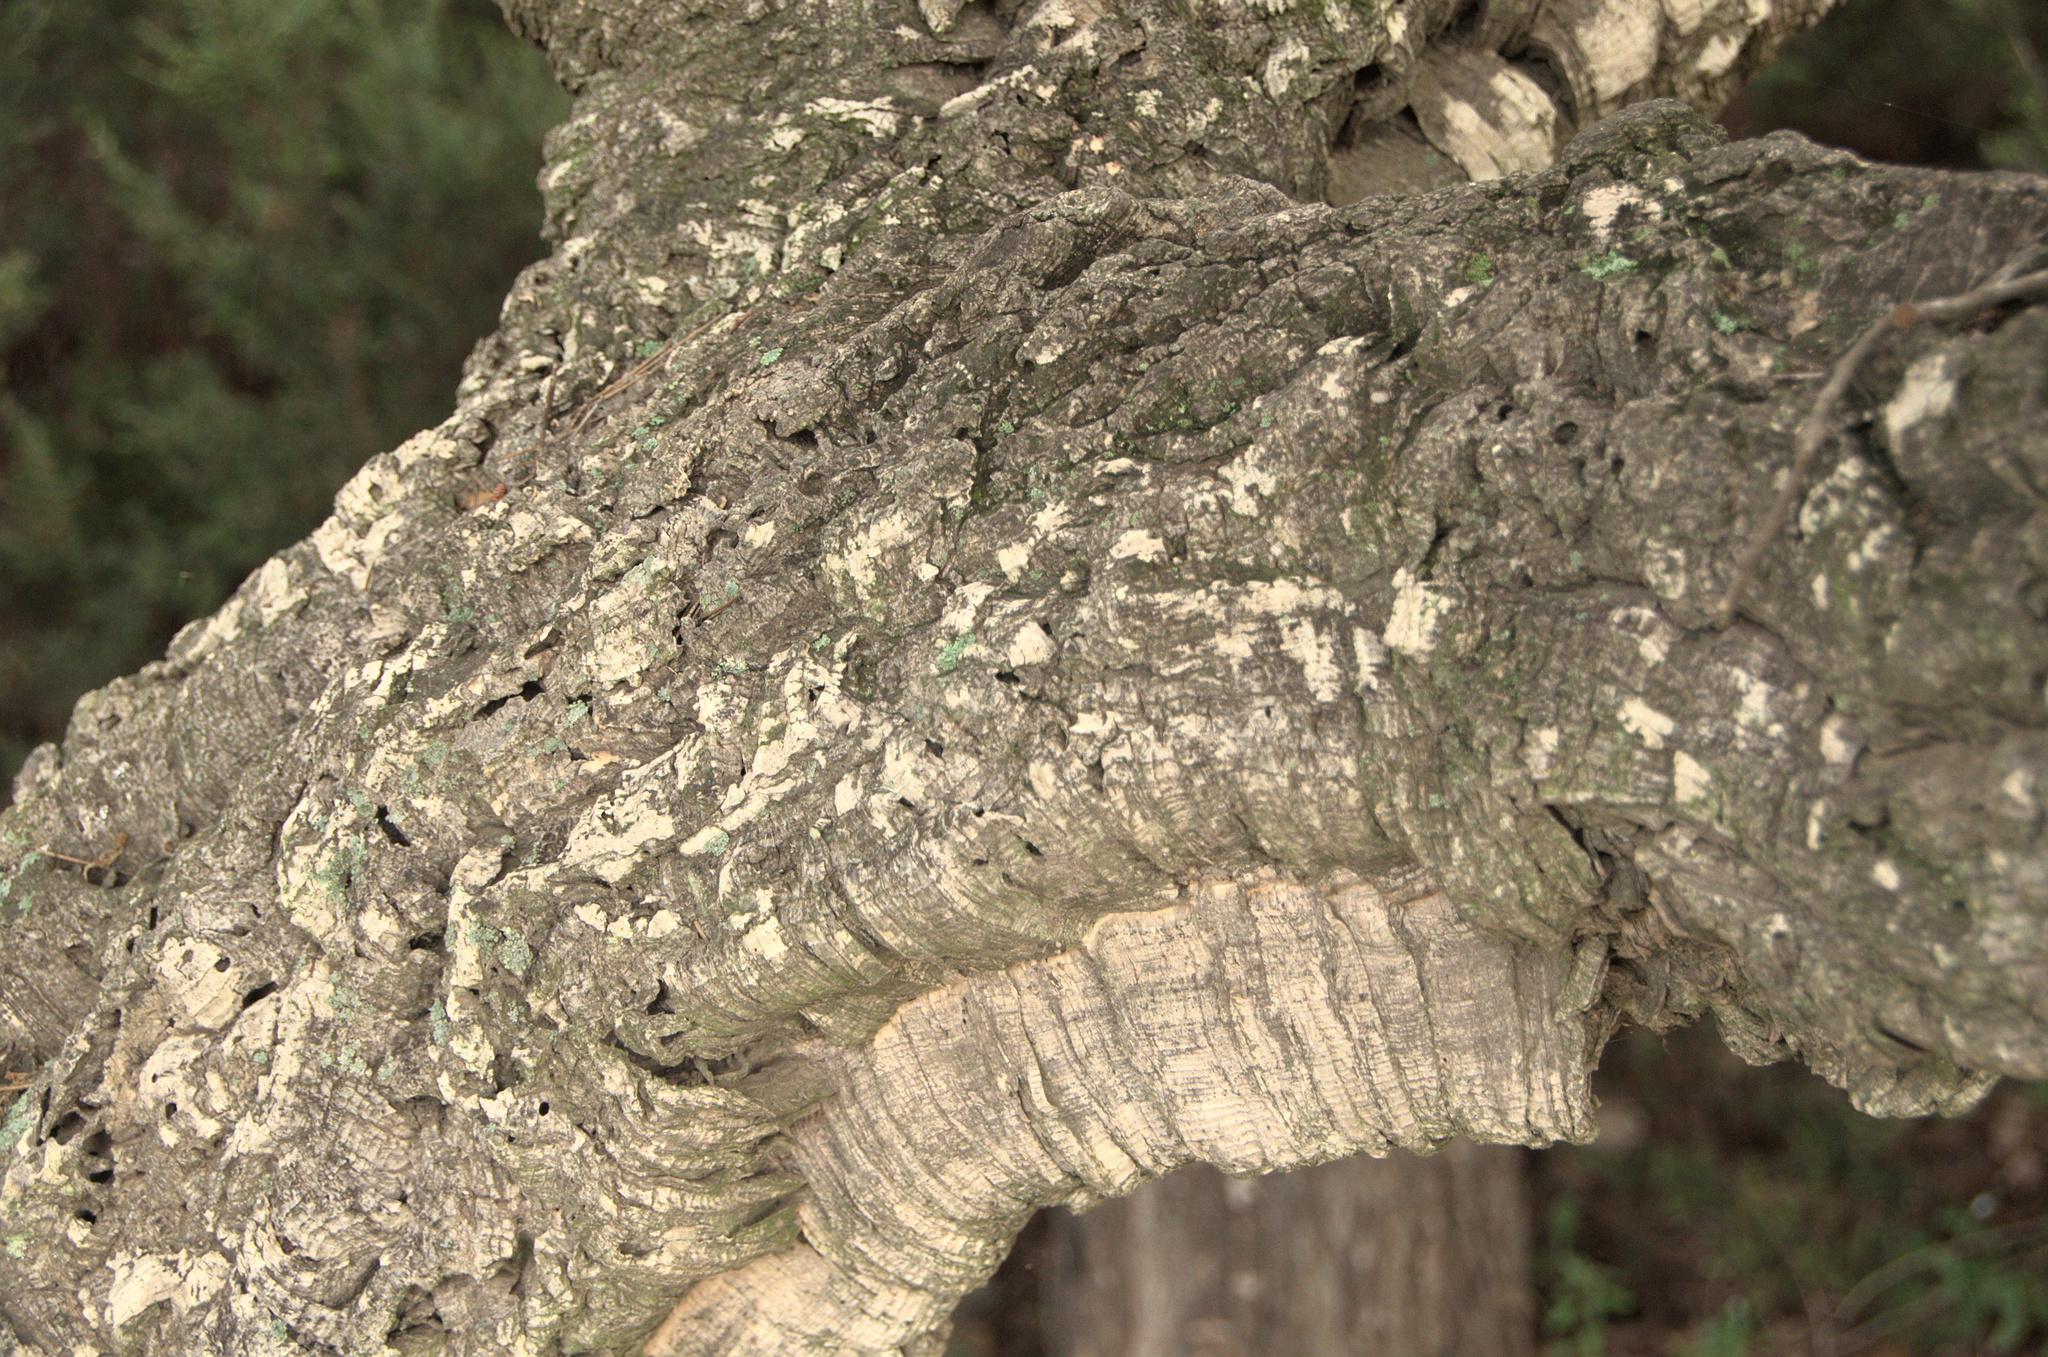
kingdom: Plantae
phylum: Tracheophyta
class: Magnoliopsida
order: Fagales
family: Fagaceae
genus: Quercus
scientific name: Quercus suber
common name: Cork oak
